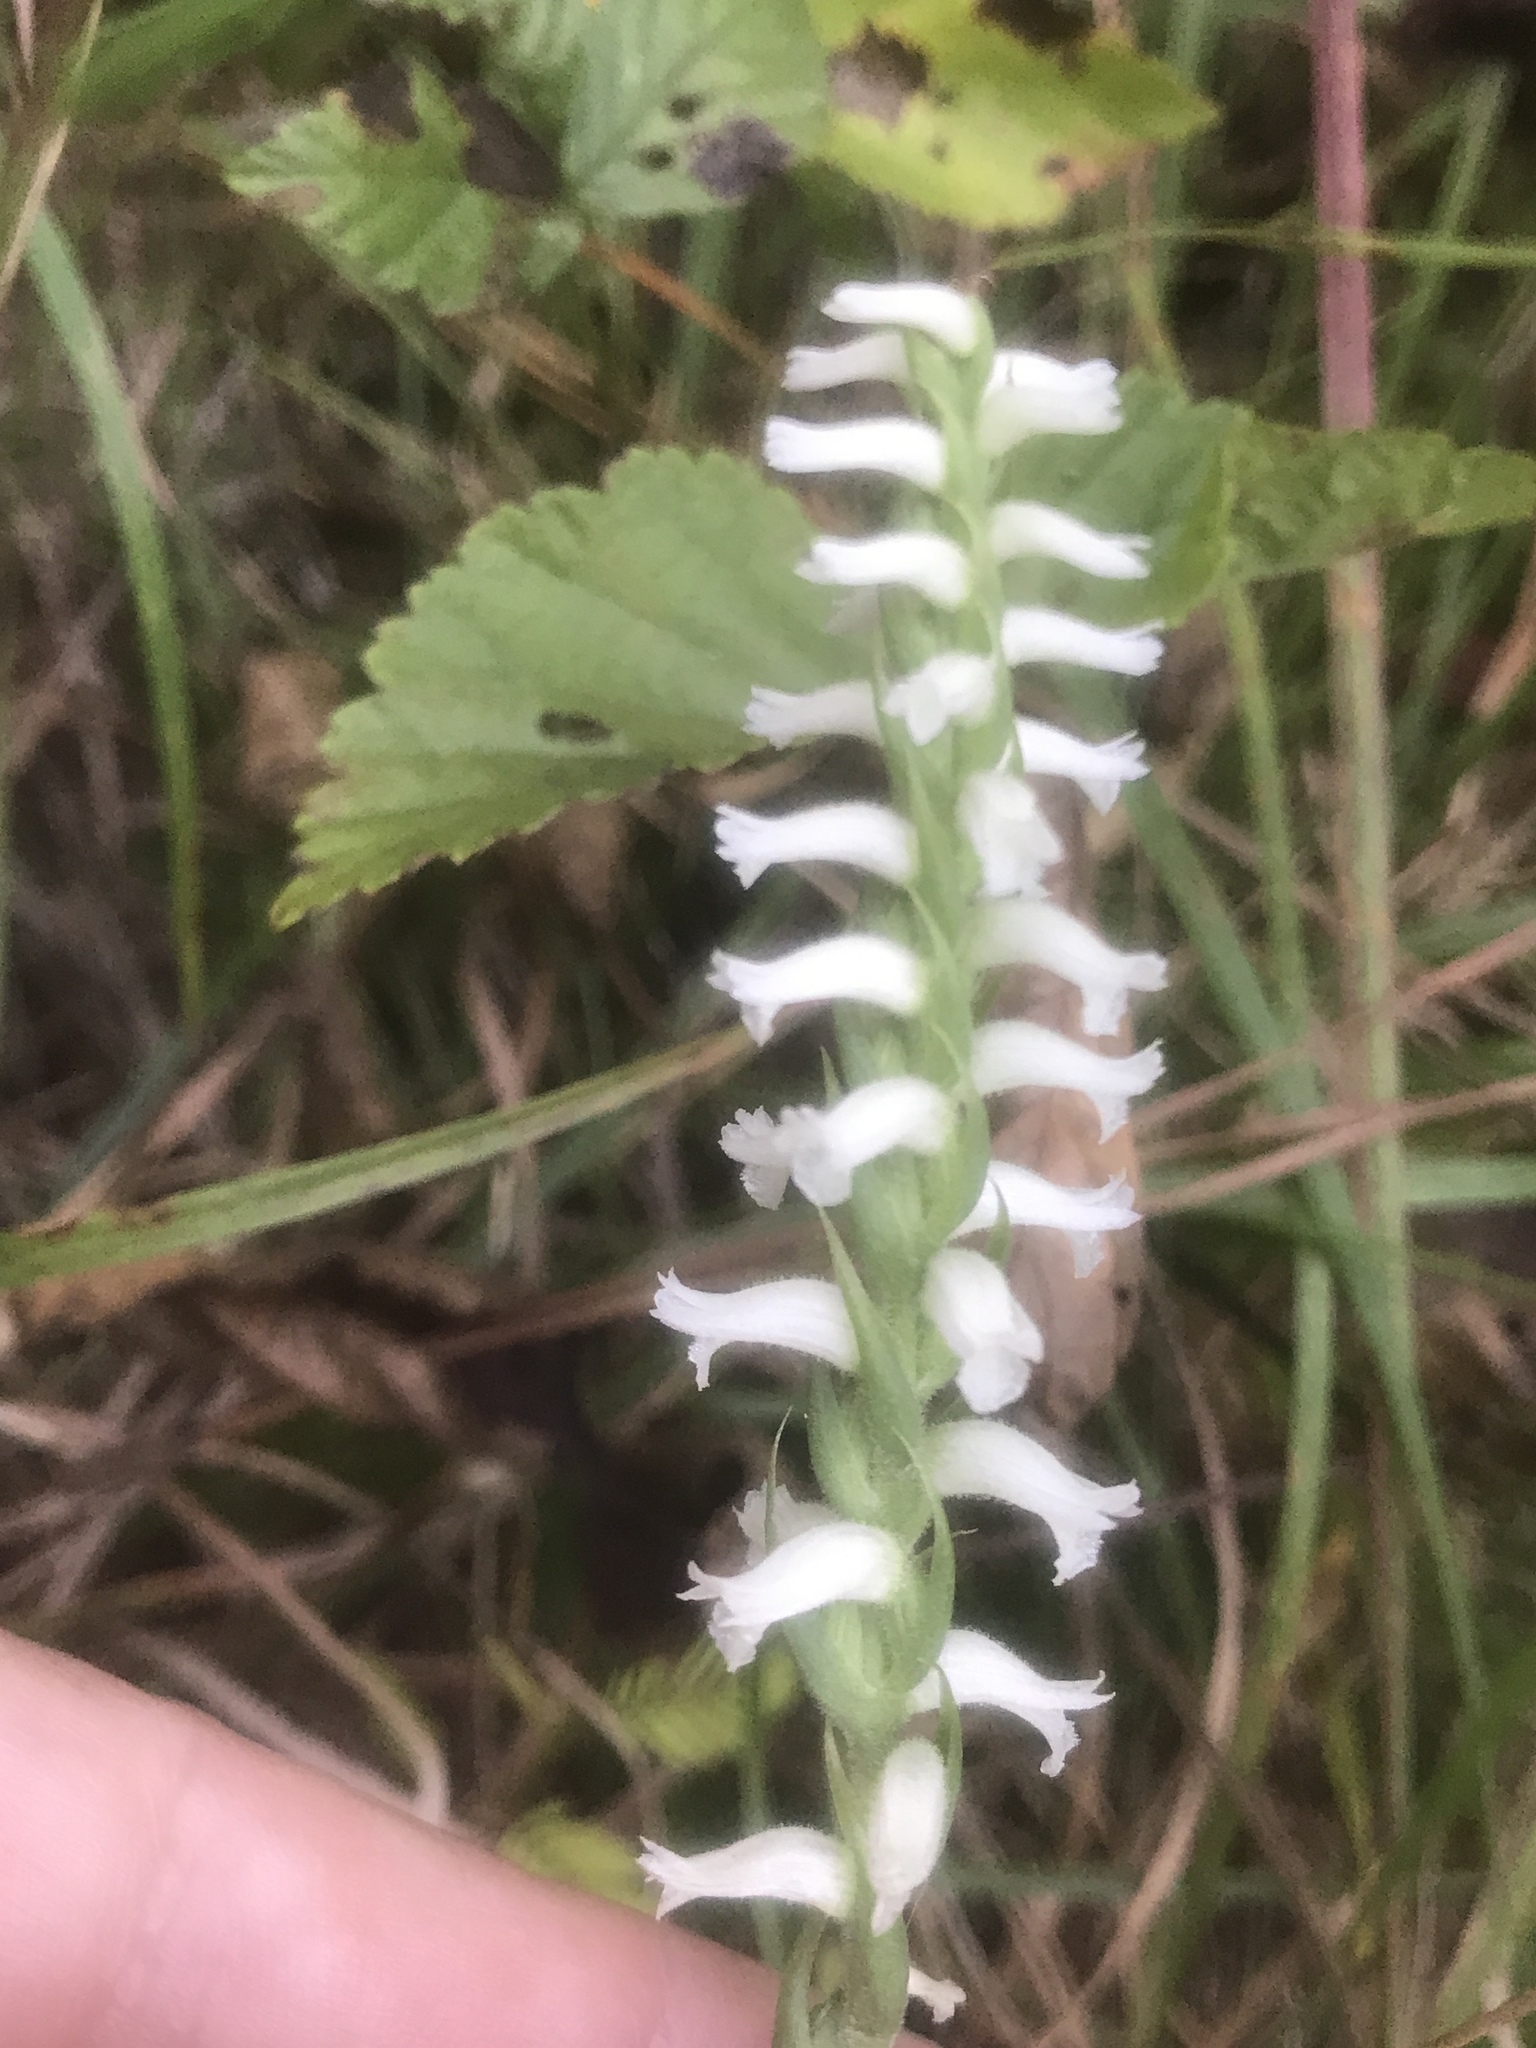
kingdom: Plantae
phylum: Tracheophyta
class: Liliopsida
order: Asparagales
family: Orchidaceae
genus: Spiranthes
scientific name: Spiranthes cernua
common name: Dropping ladies'-tresses
